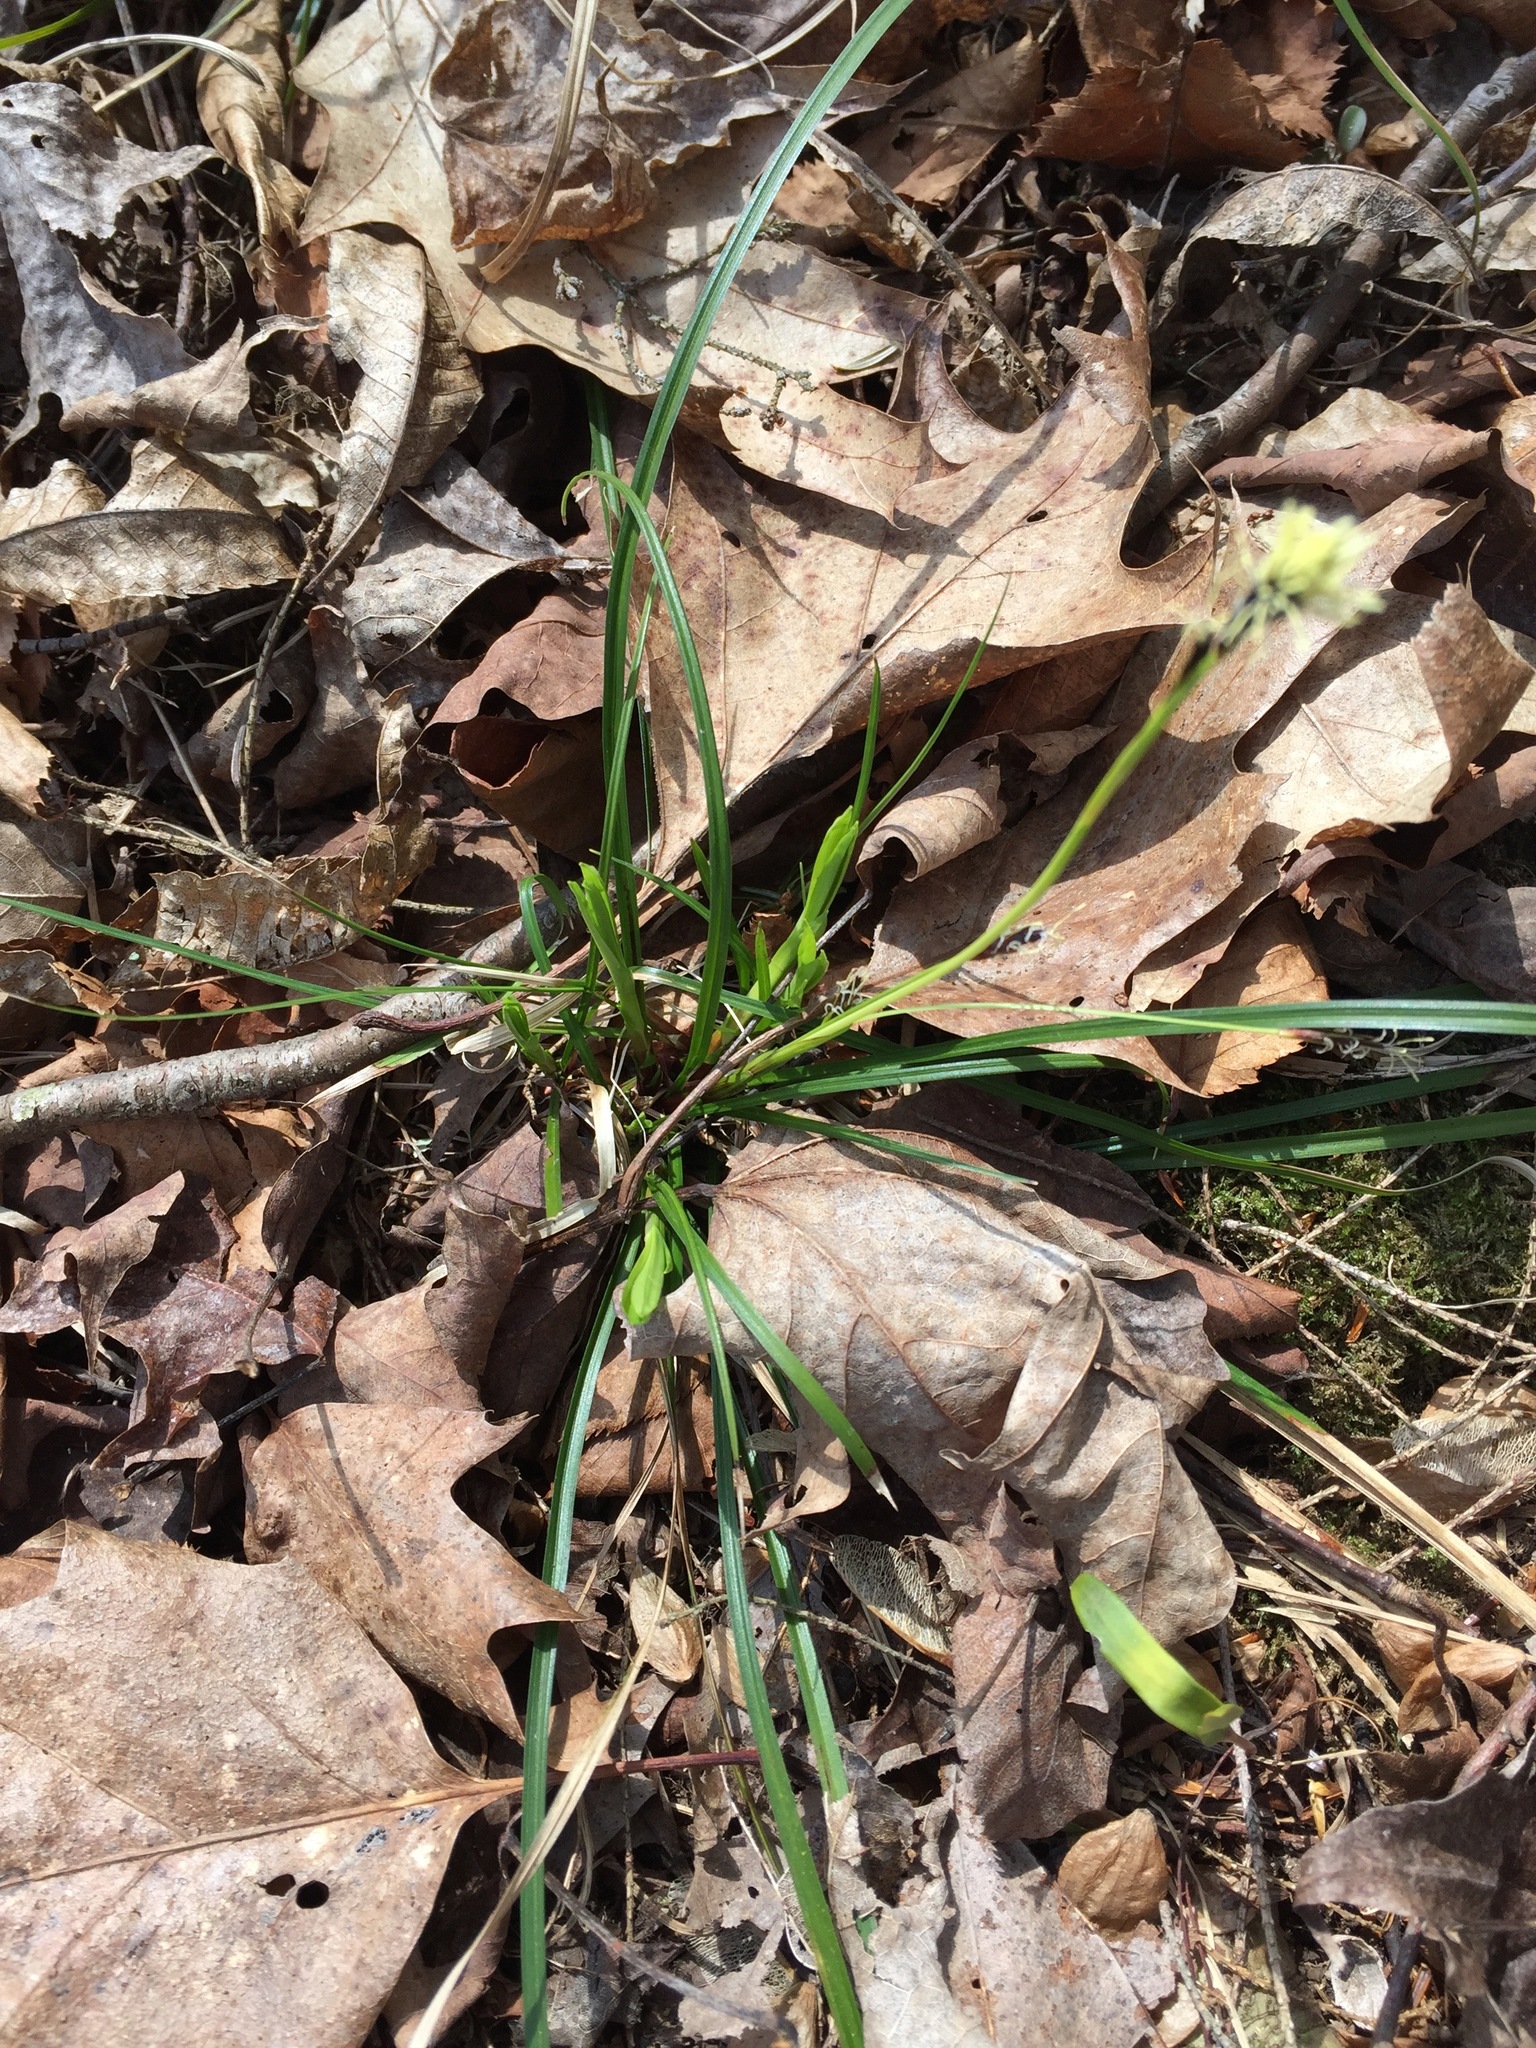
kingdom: Plantae
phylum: Tracheophyta
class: Liliopsida
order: Poales
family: Cyperaceae
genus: Carex
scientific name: Carex pedunculata
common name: Pedunculate sedge
